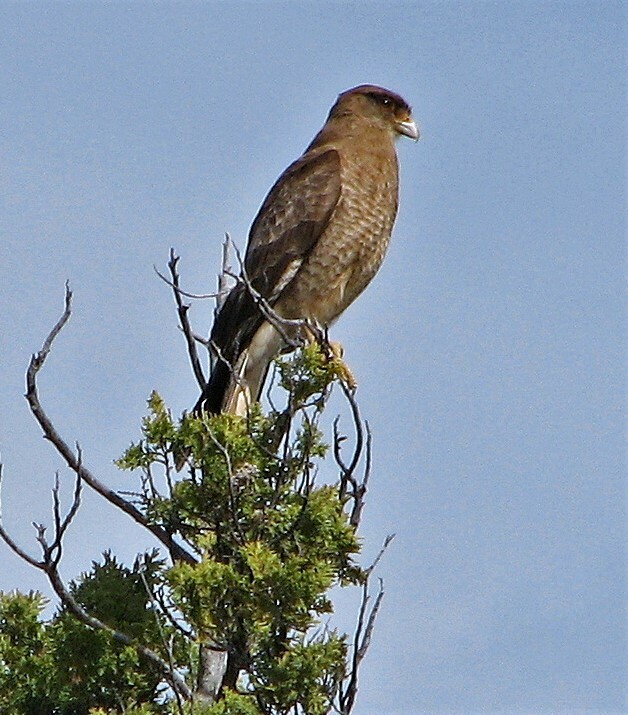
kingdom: Animalia
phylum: Chordata
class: Aves
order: Falconiformes
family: Falconidae
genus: Daptrius
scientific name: Daptrius
